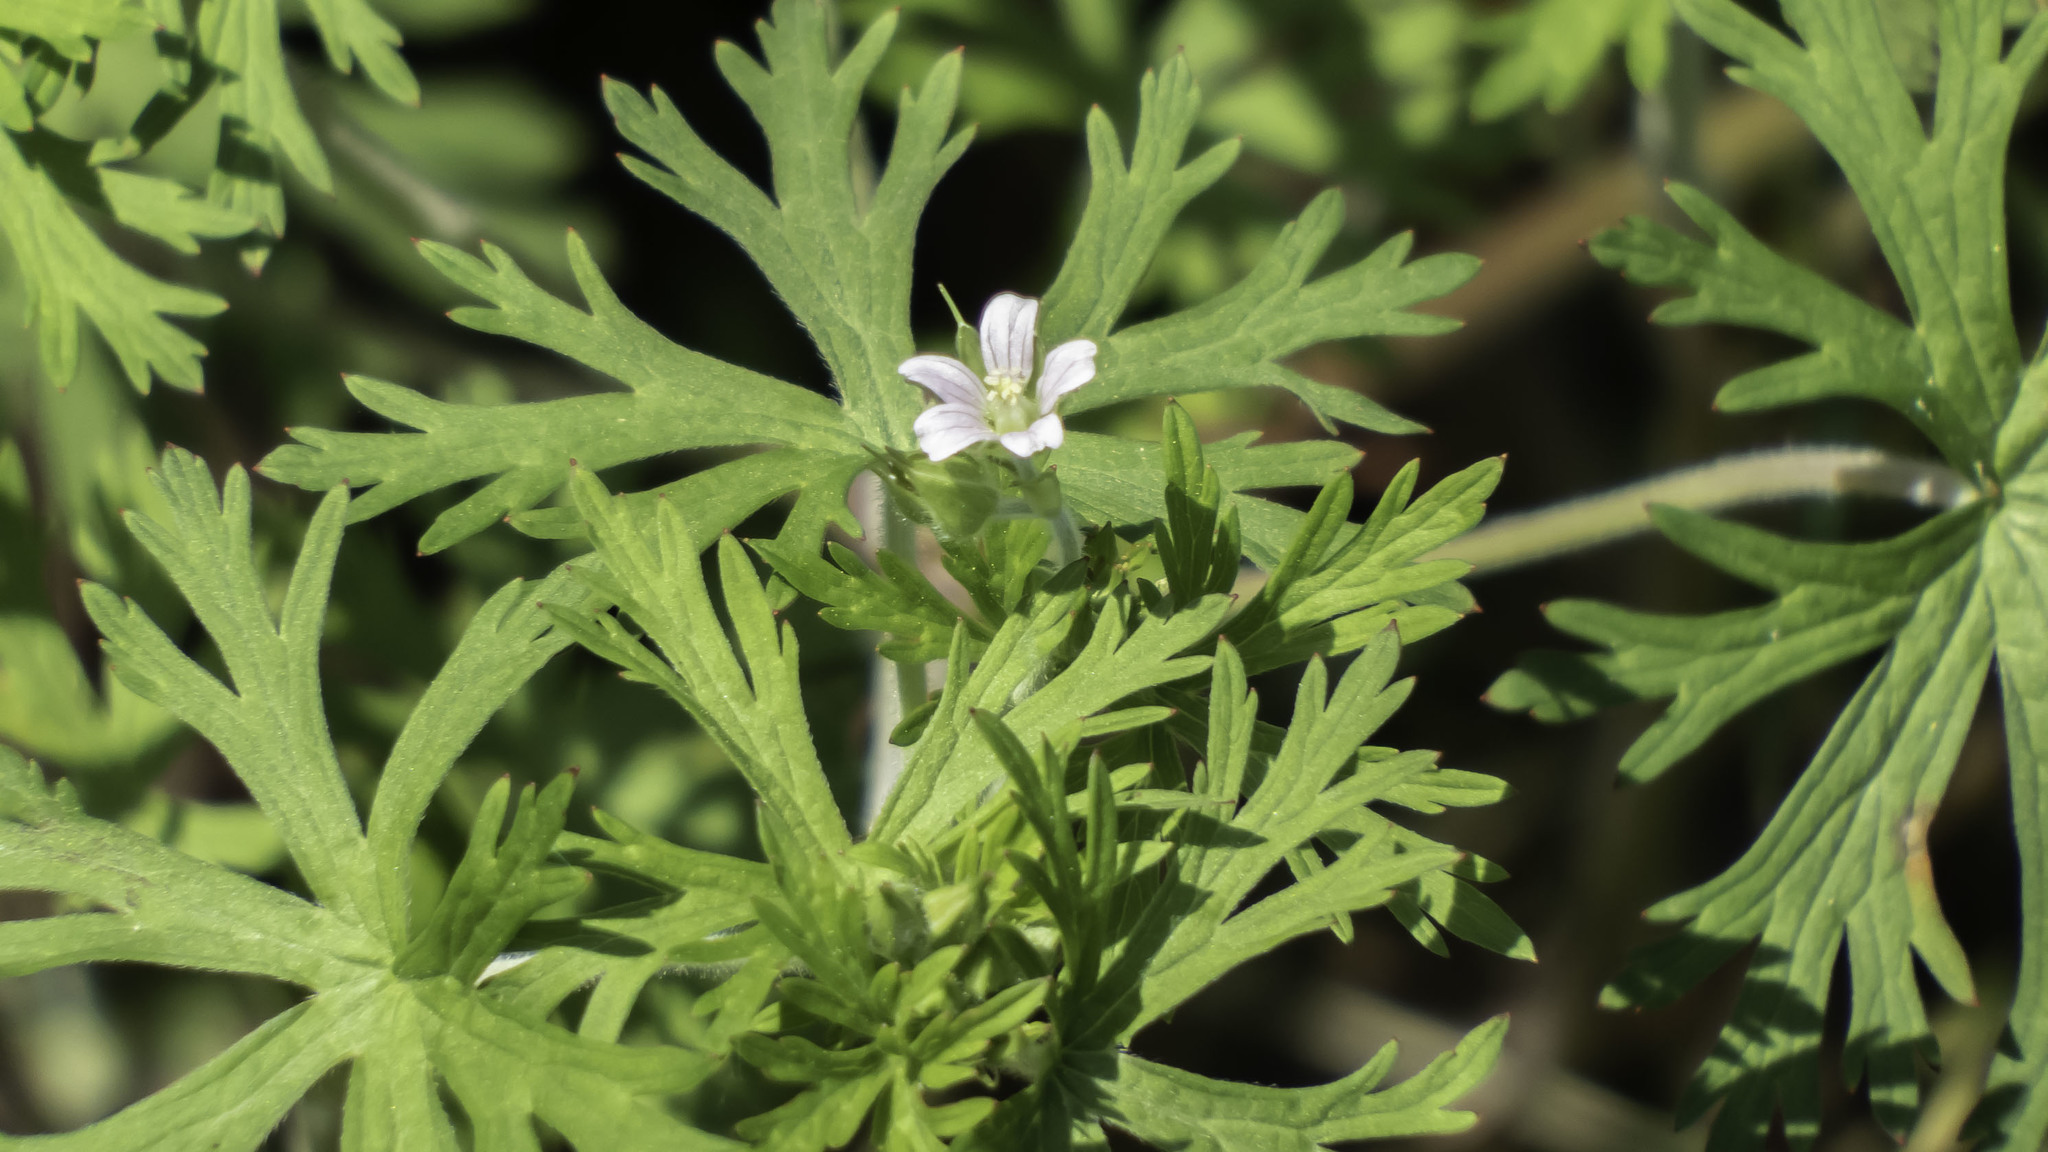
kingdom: Plantae
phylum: Tracheophyta
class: Magnoliopsida
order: Geraniales
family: Geraniaceae
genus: Geranium
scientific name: Geranium carolinianum
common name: Carolina crane's-bill
